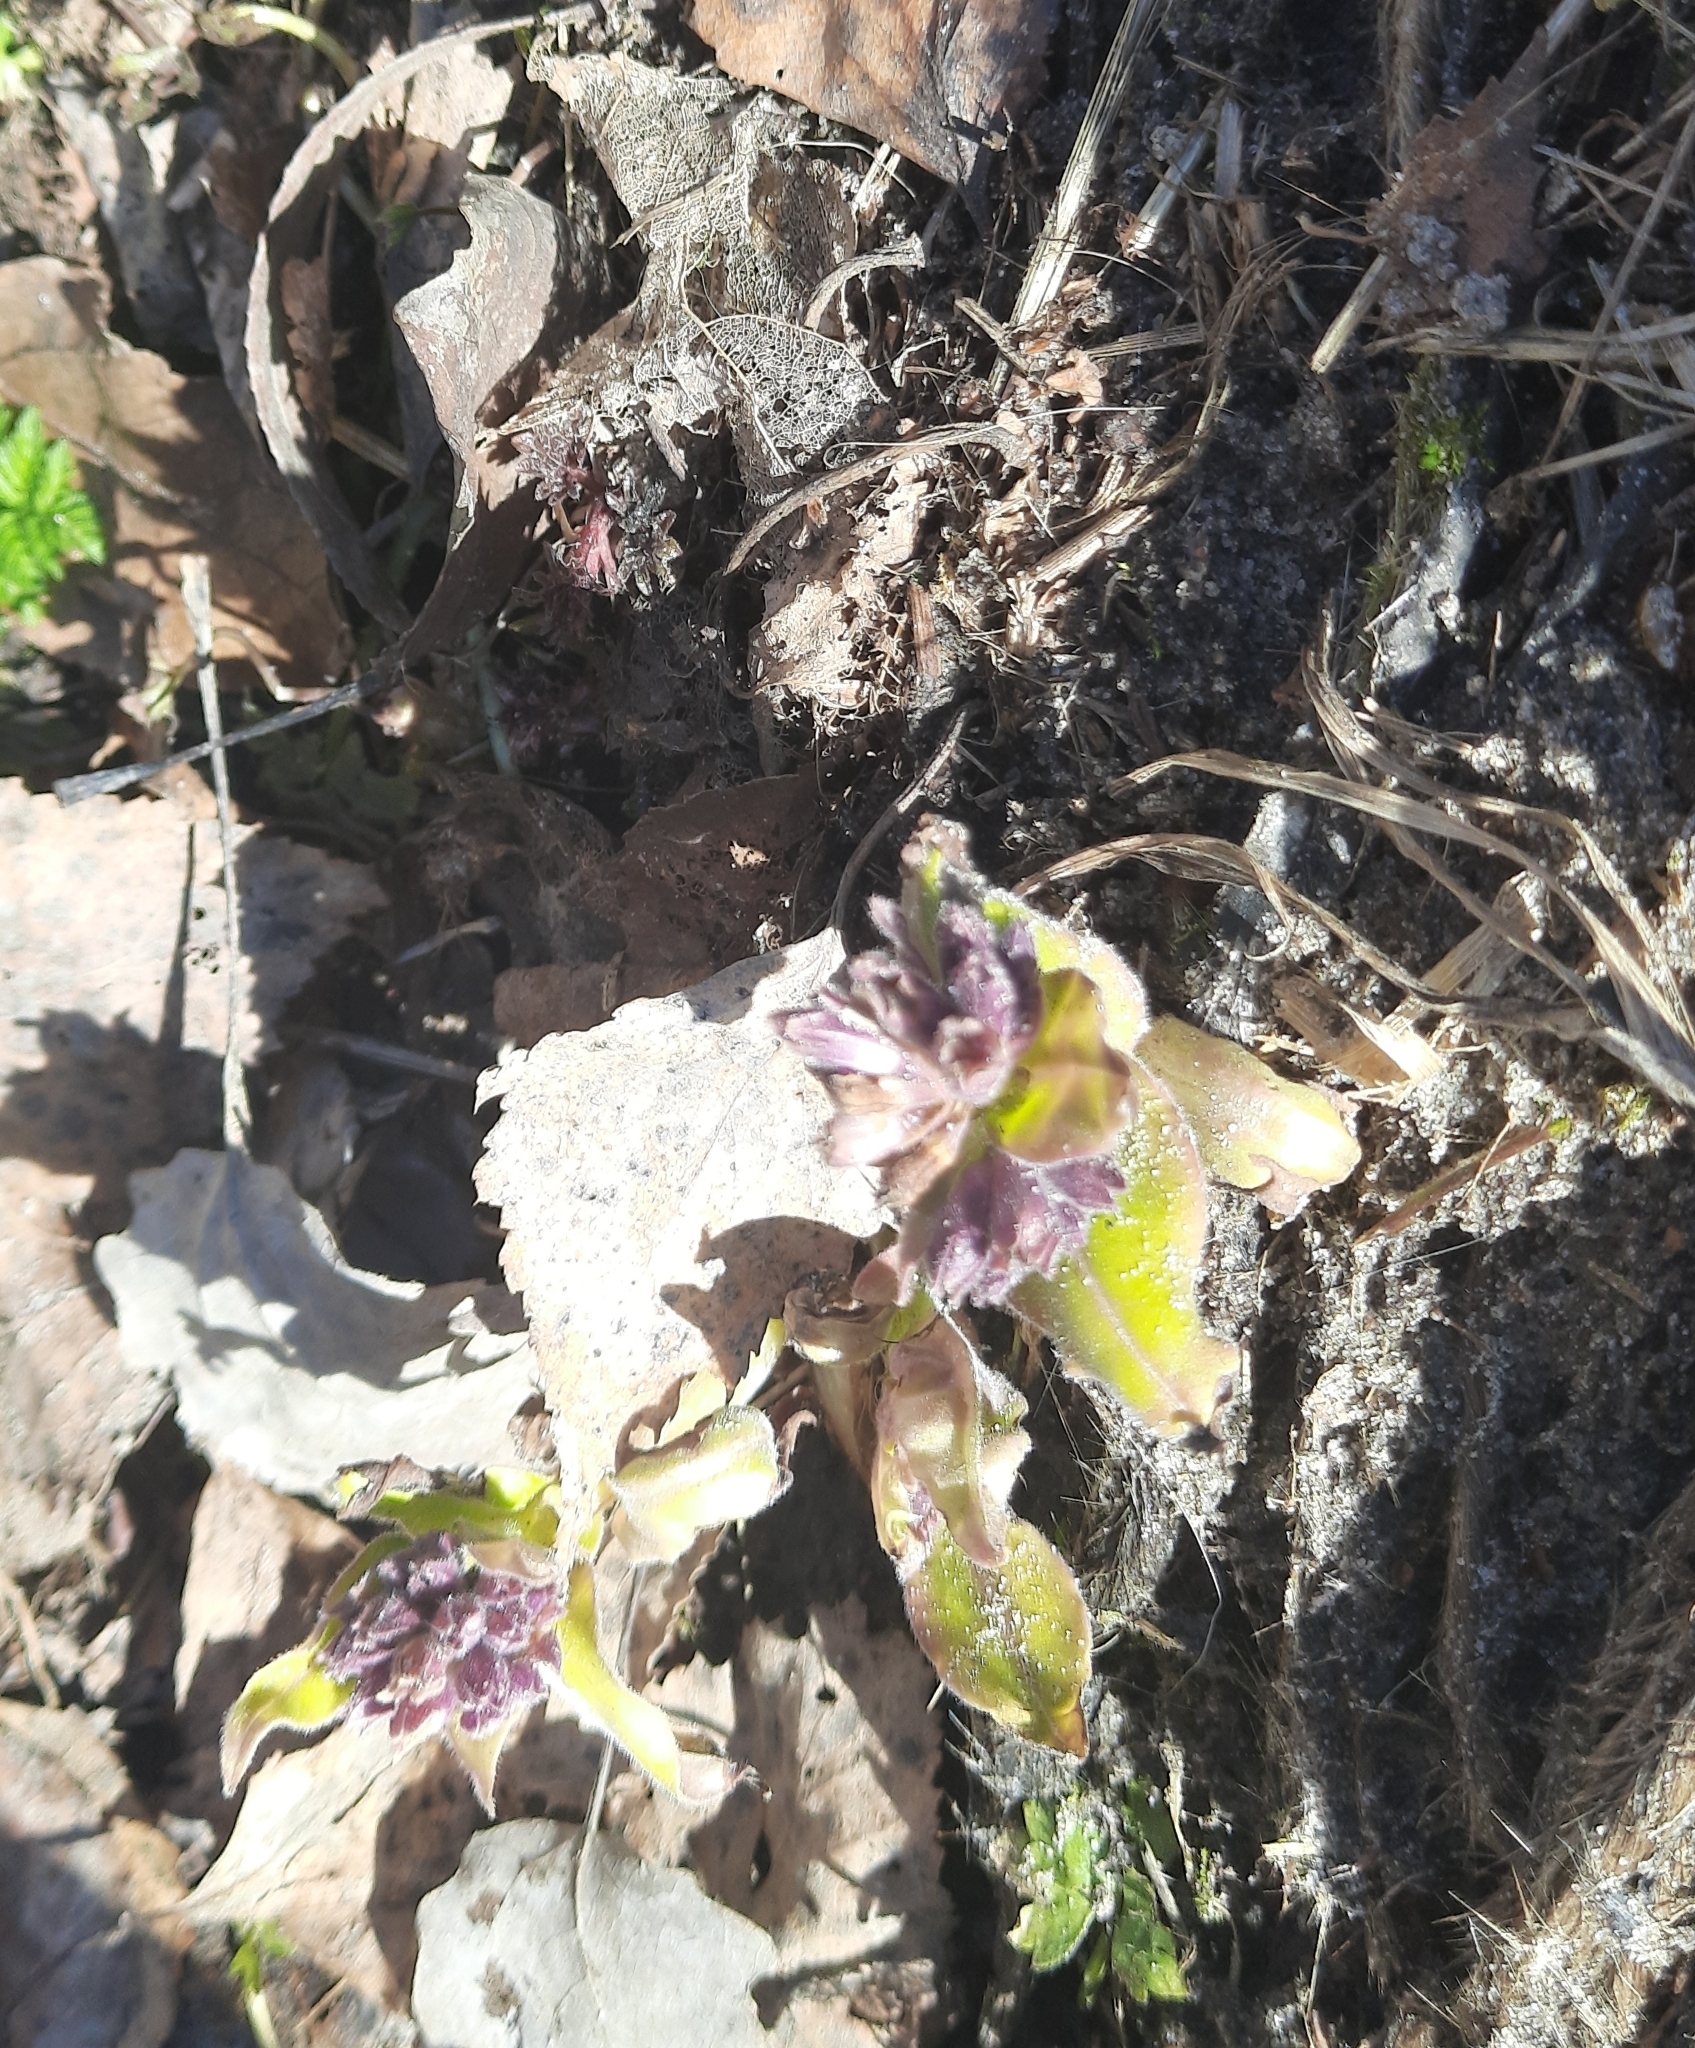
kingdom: Plantae
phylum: Tracheophyta
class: Magnoliopsida
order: Boraginales
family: Boraginaceae
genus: Pulmonaria
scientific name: Pulmonaria mollis
